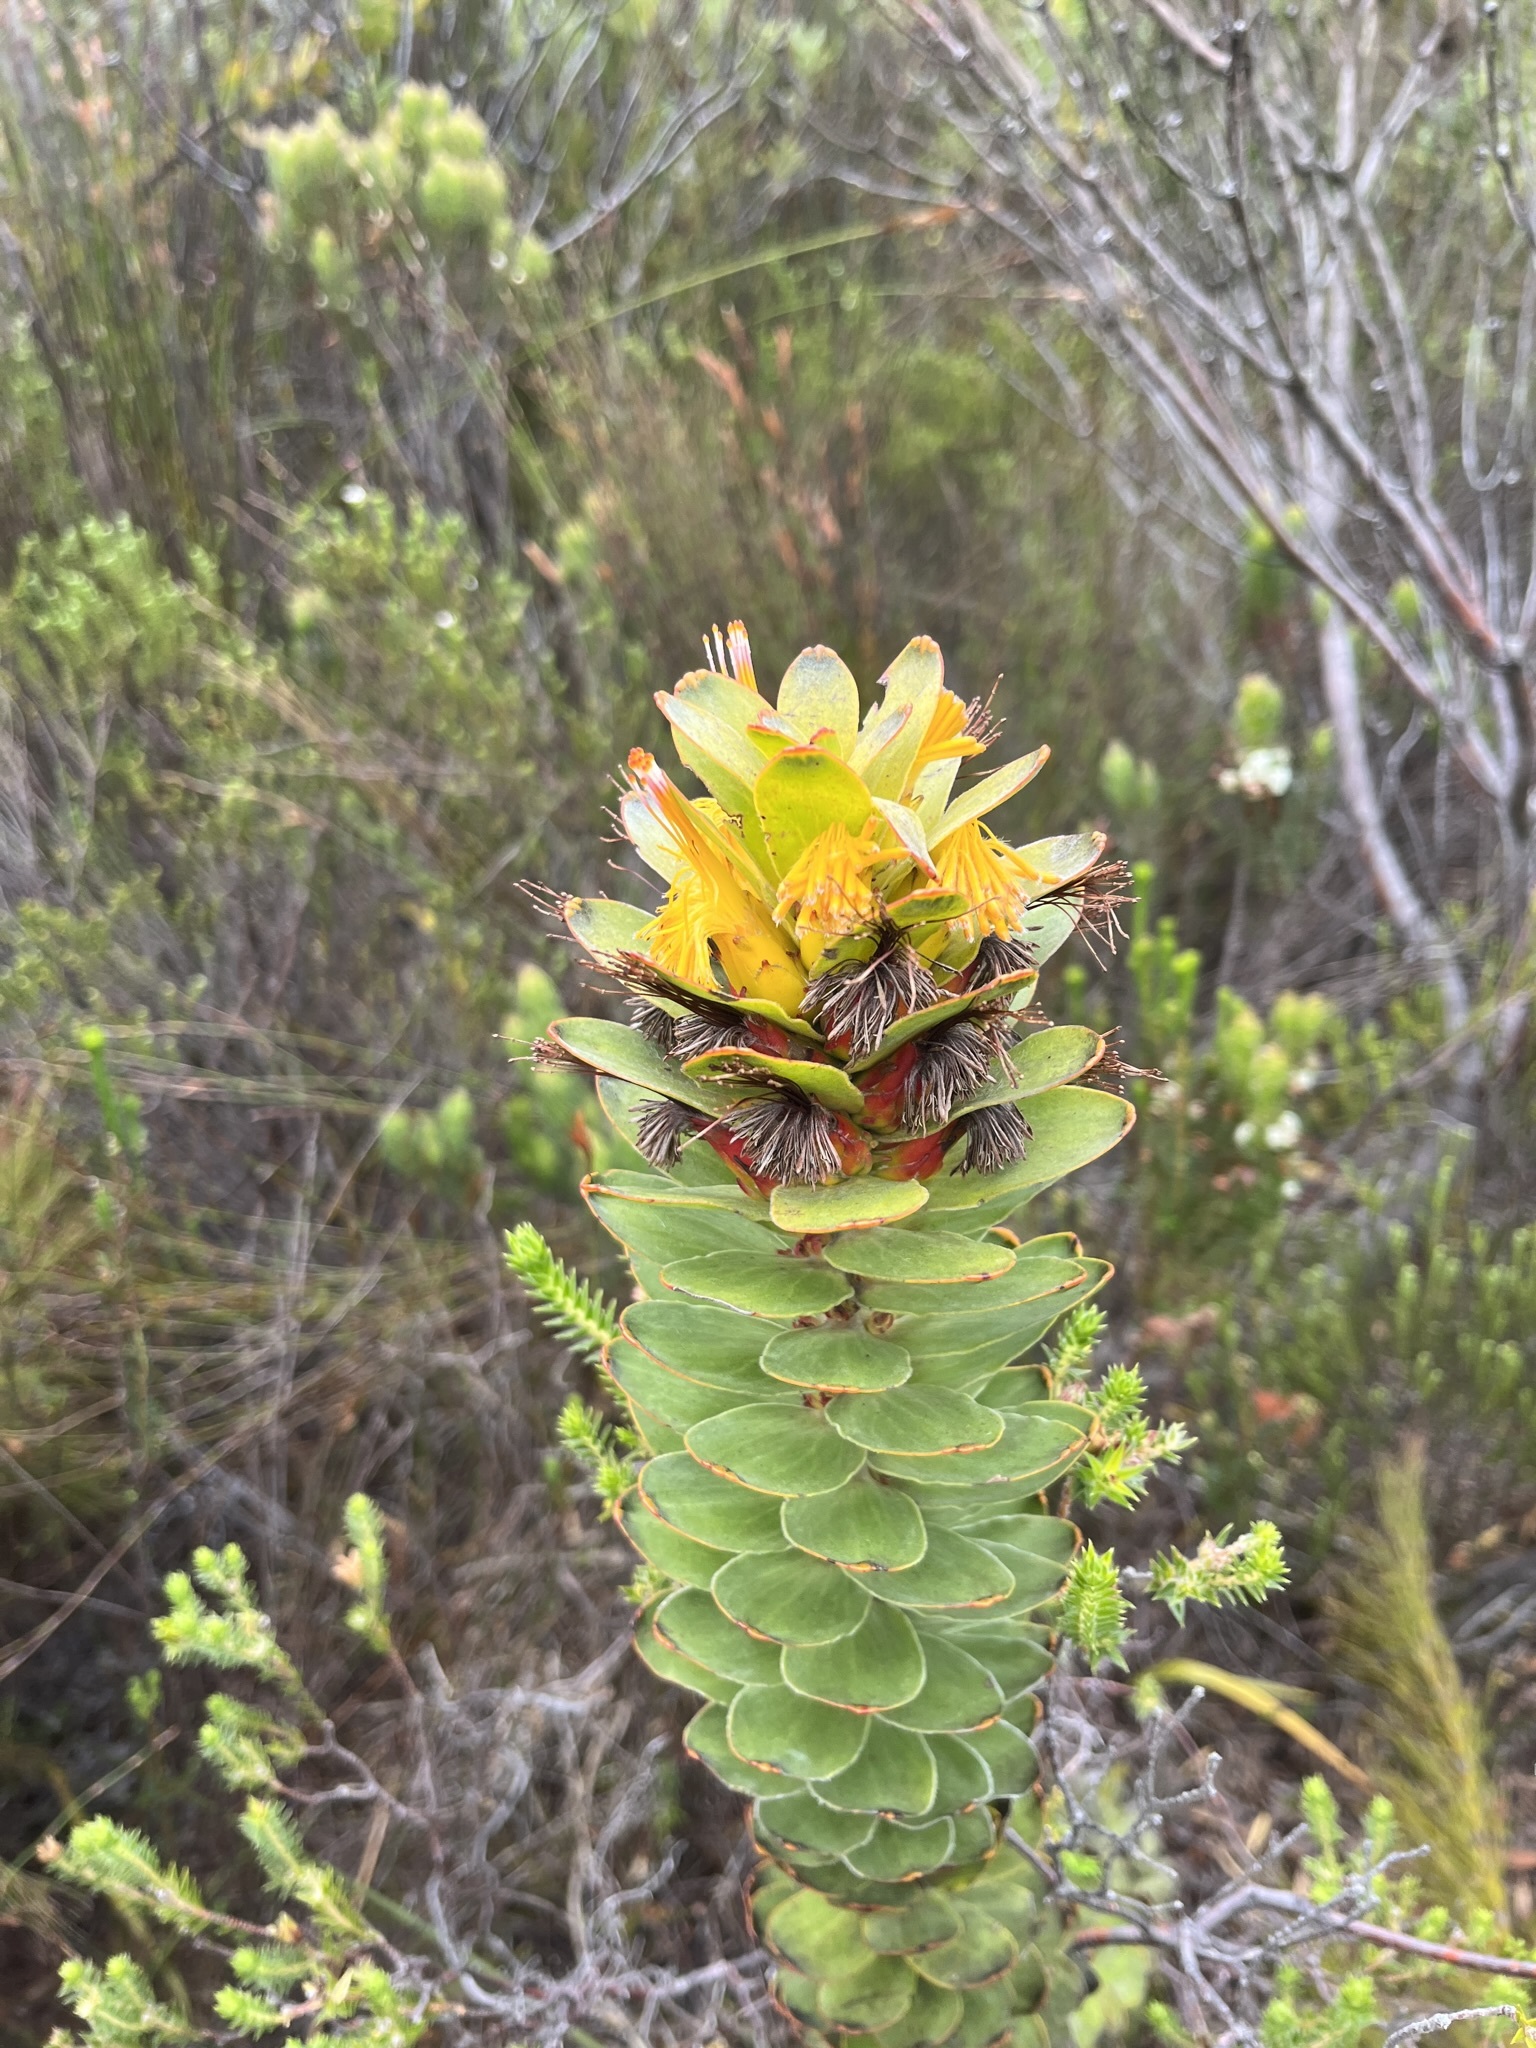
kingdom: Plantae
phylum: Tracheophyta
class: Magnoliopsida
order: Proteales
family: Proteaceae
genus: Mimetes
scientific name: Mimetes saxatilis
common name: Limestone pagoda
